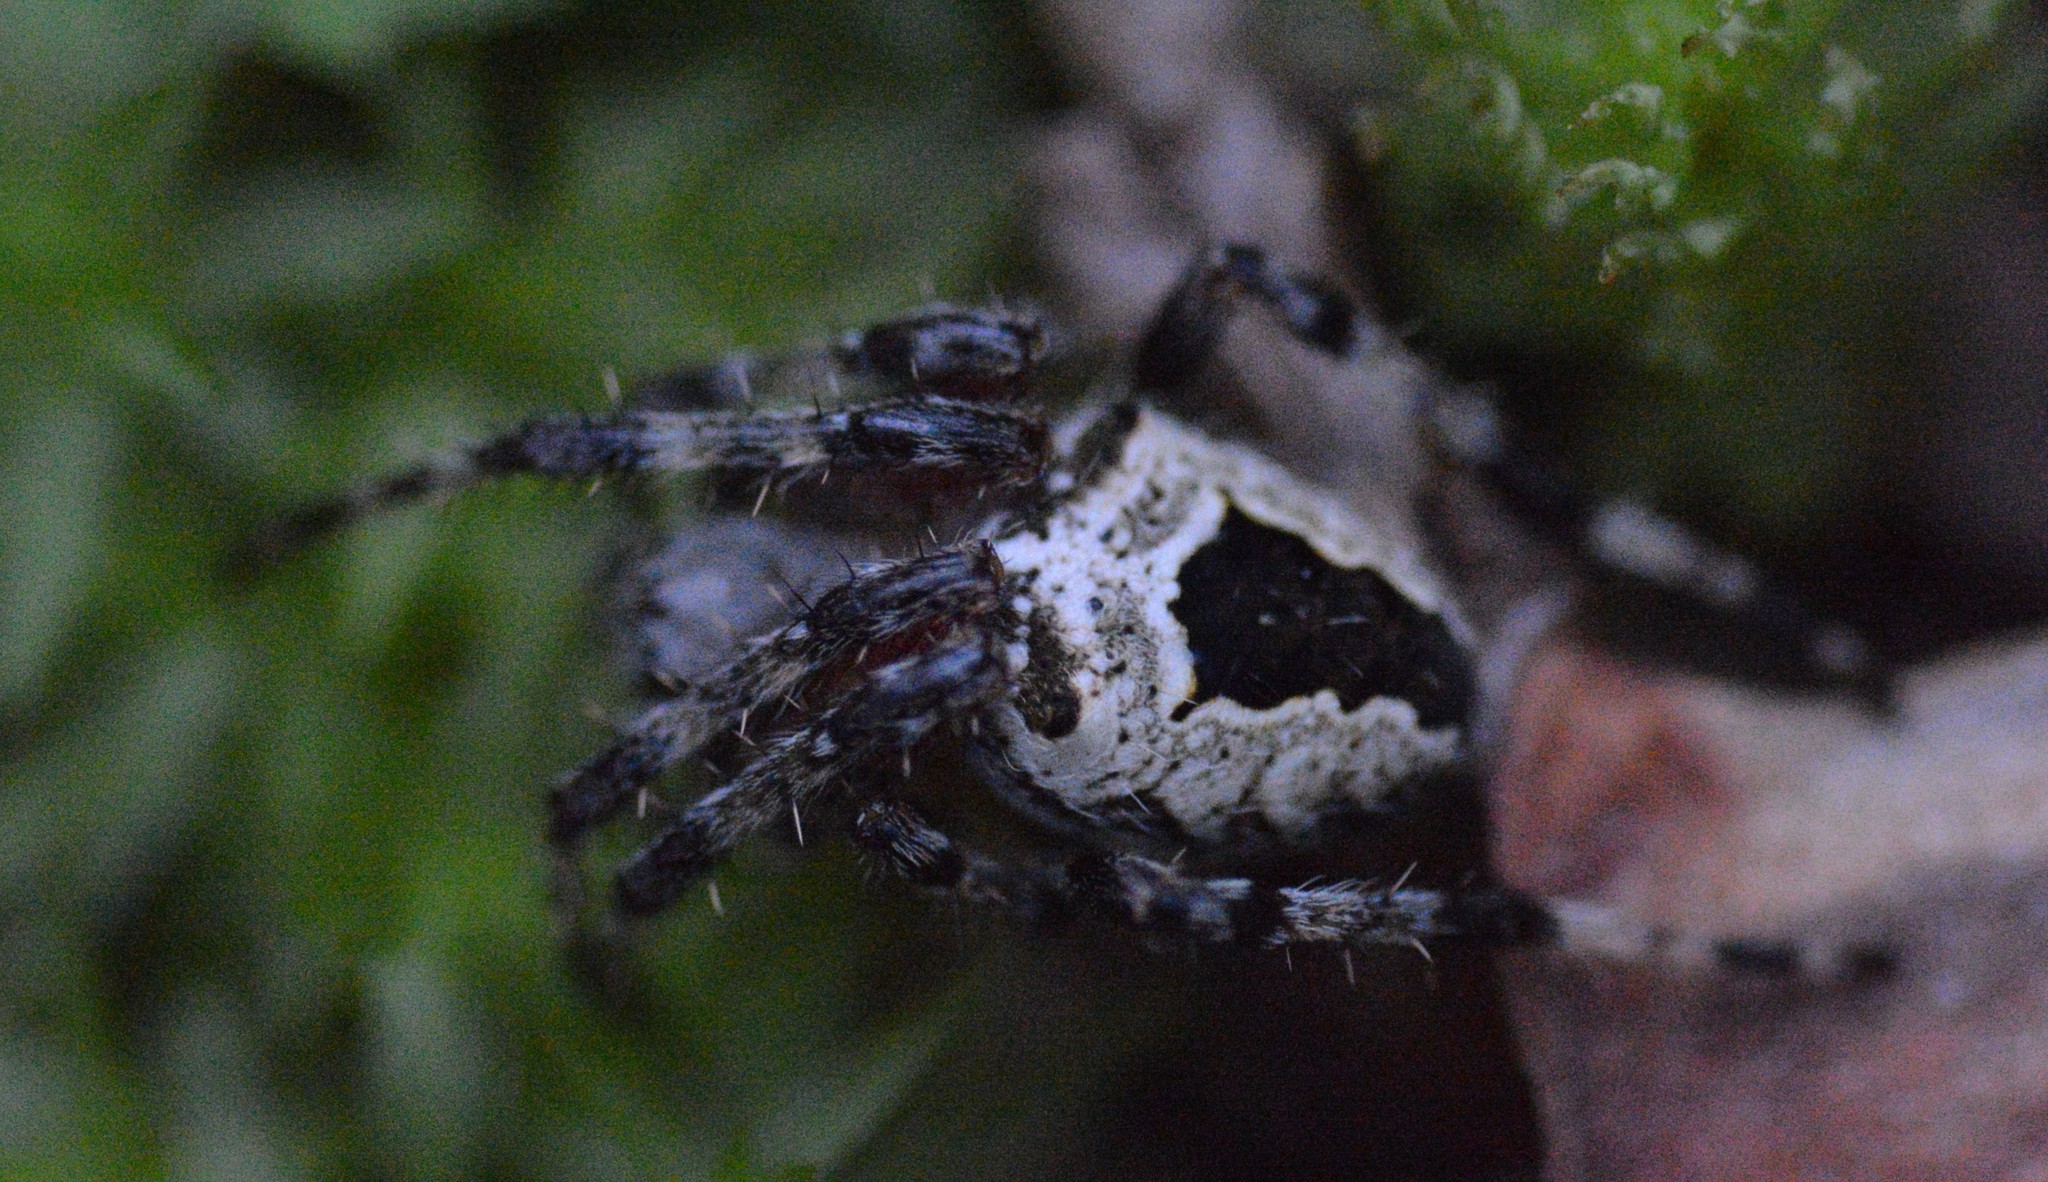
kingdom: Animalia
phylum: Arthropoda
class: Arachnida
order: Araneae
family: Araneidae
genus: Araneus
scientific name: Araneus nordmanni
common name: Nordmann's orbweaver
